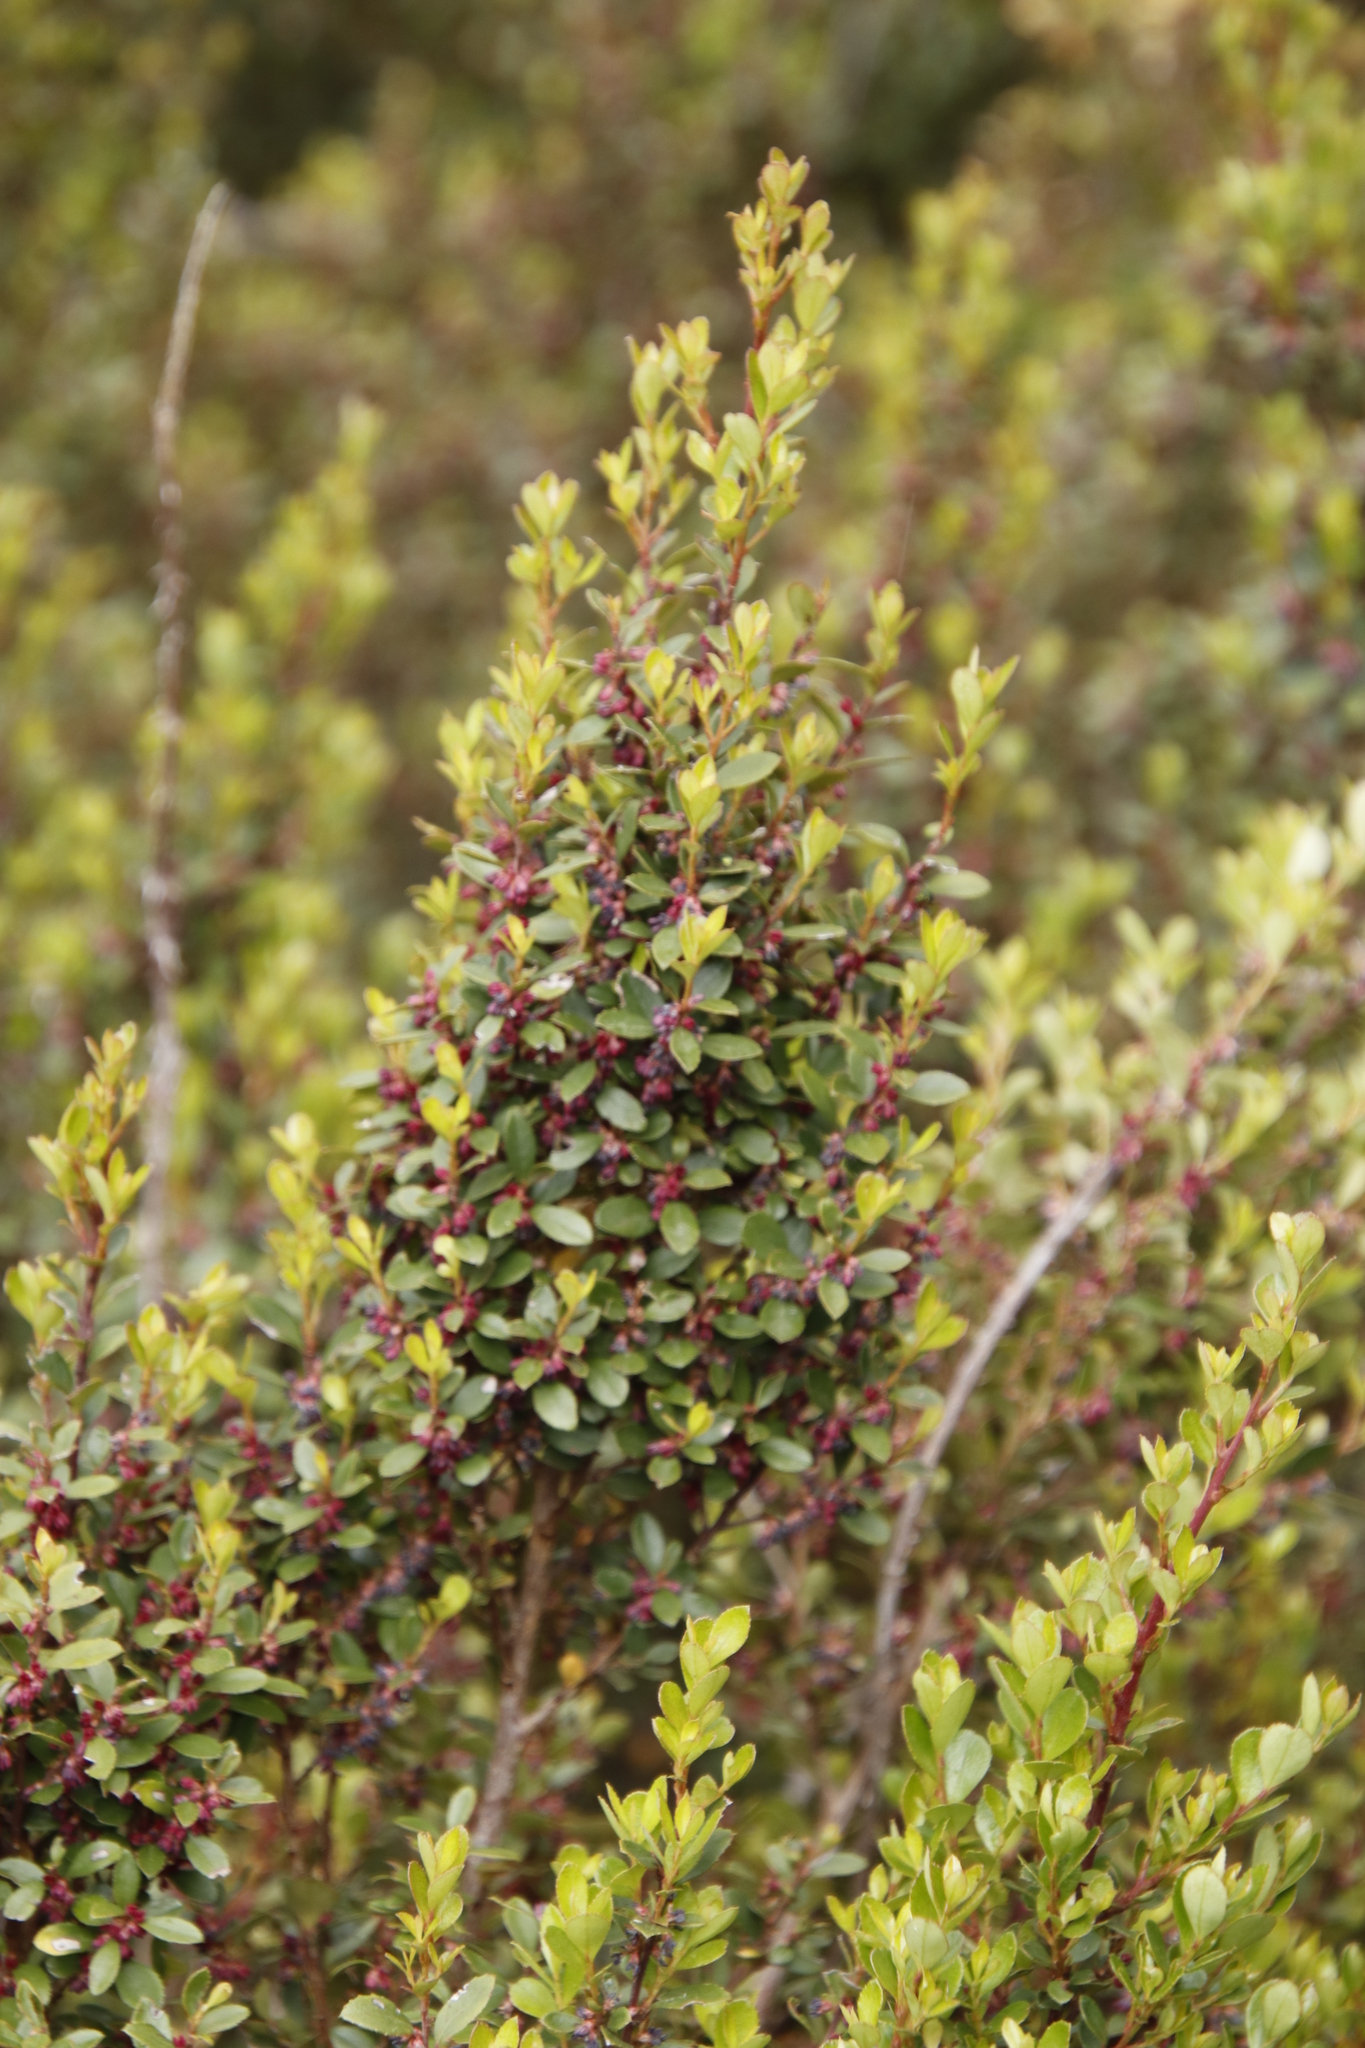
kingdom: Plantae
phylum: Tracheophyta
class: Magnoliopsida
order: Ericales
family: Primulaceae
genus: Myrsine
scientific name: Myrsine africana
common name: African-boxwood
